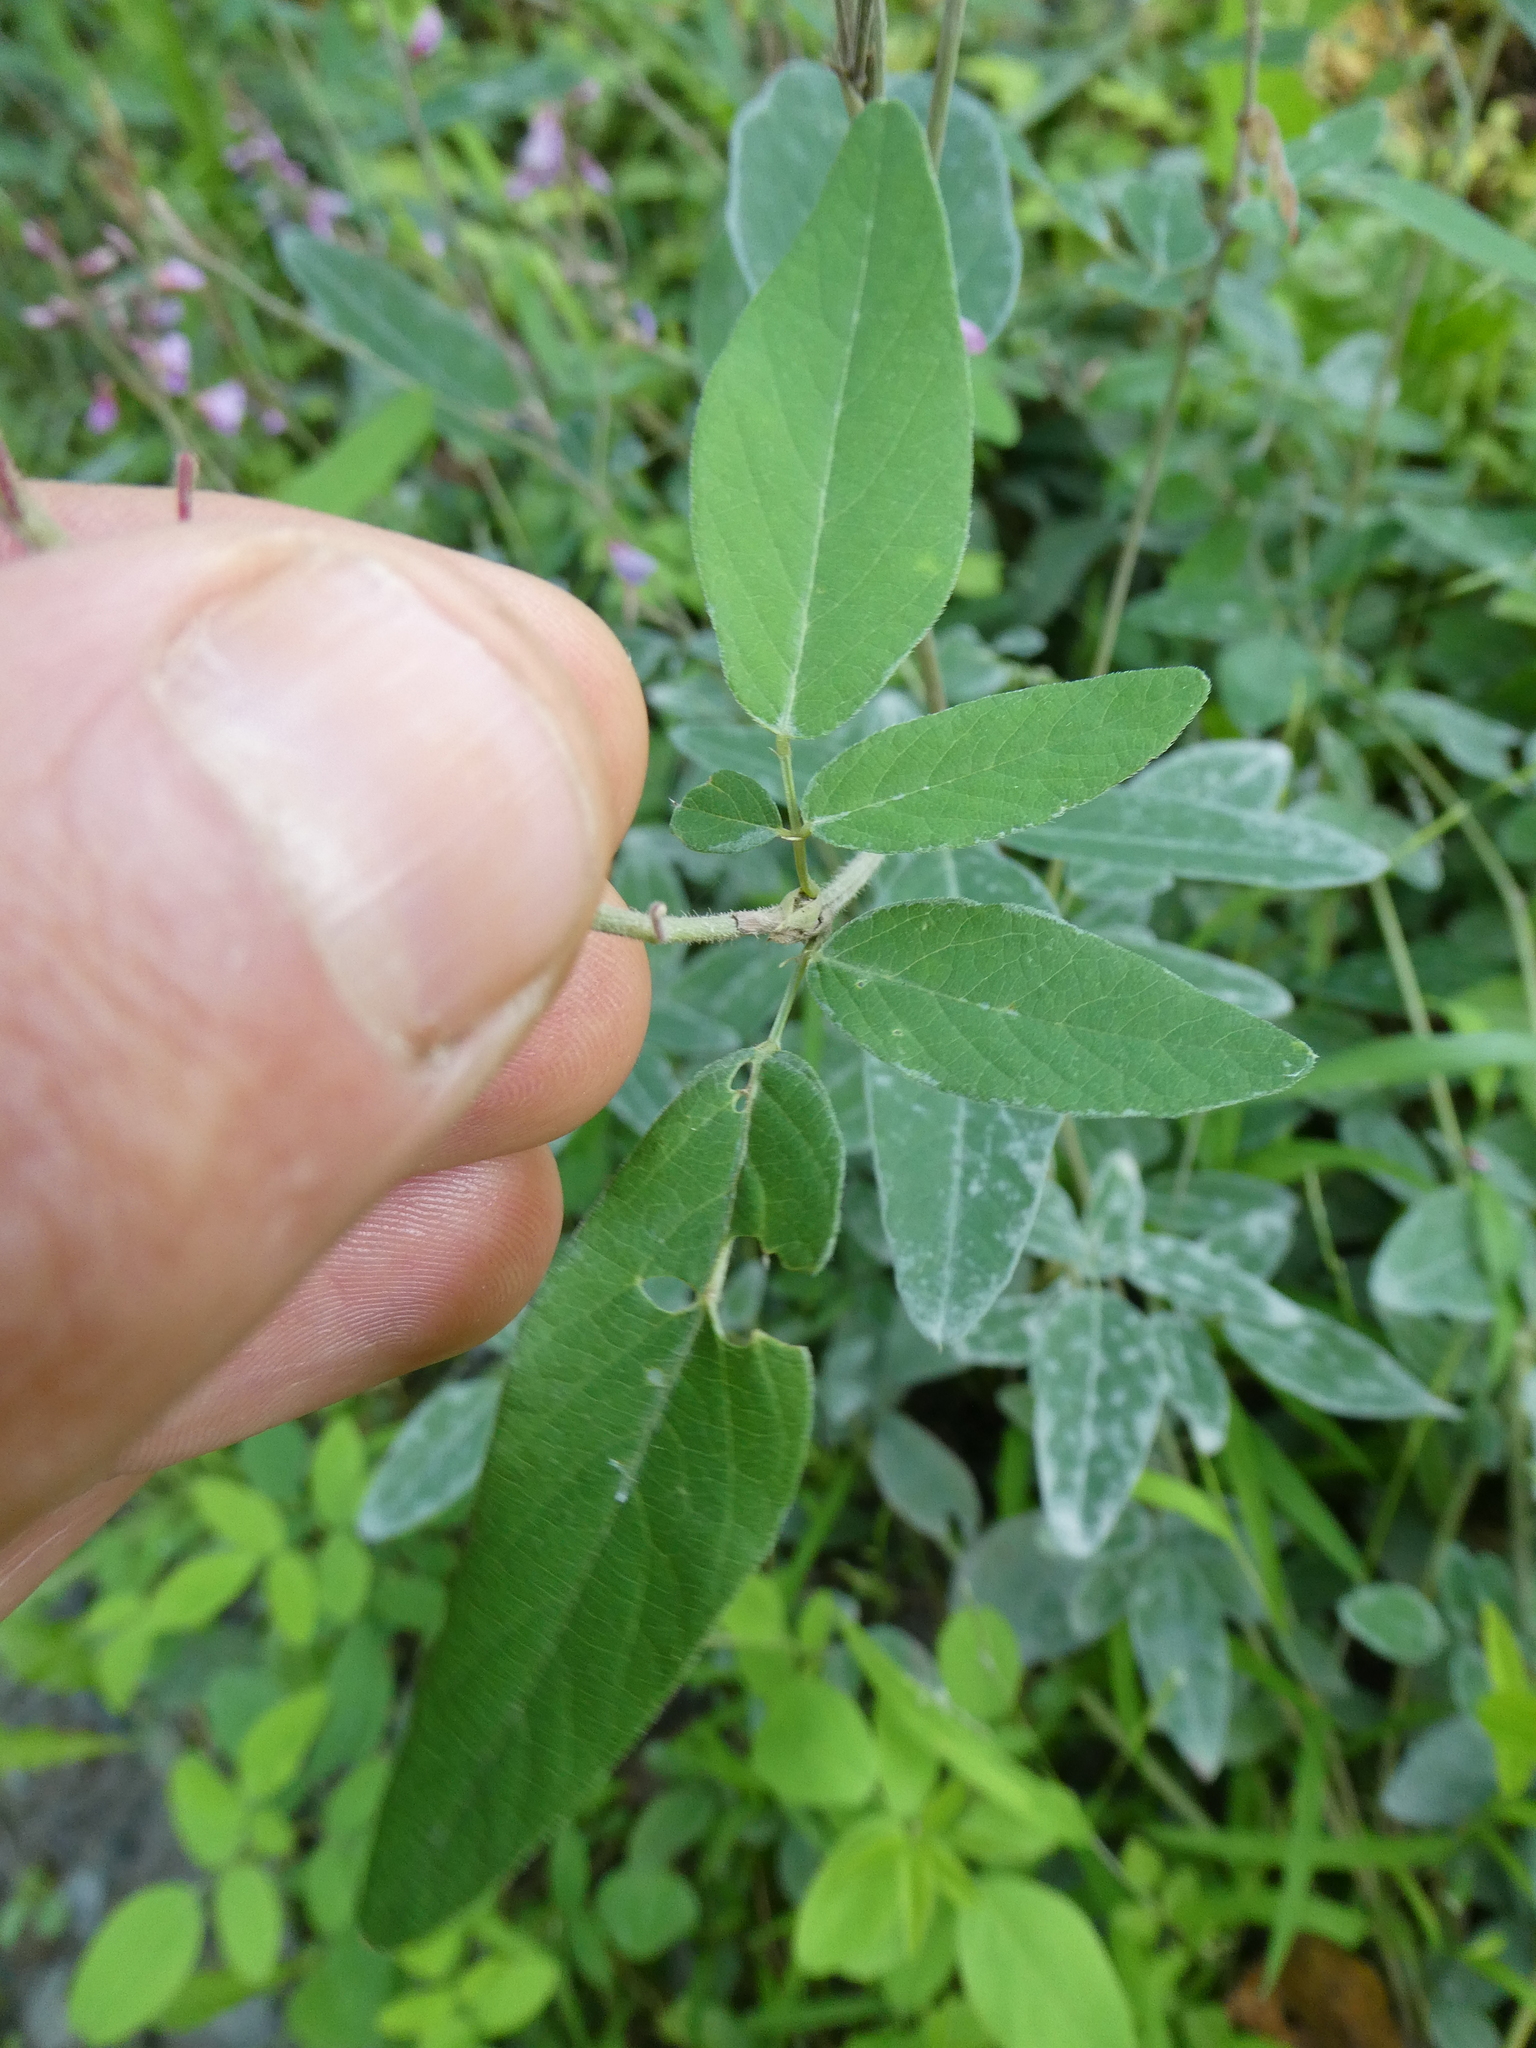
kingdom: Plantae
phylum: Tracheophyta
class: Magnoliopsida
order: Fabales
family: Fabaceae
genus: Desmodium
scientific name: Desmodium canadense
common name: Canada tick-trefoil
